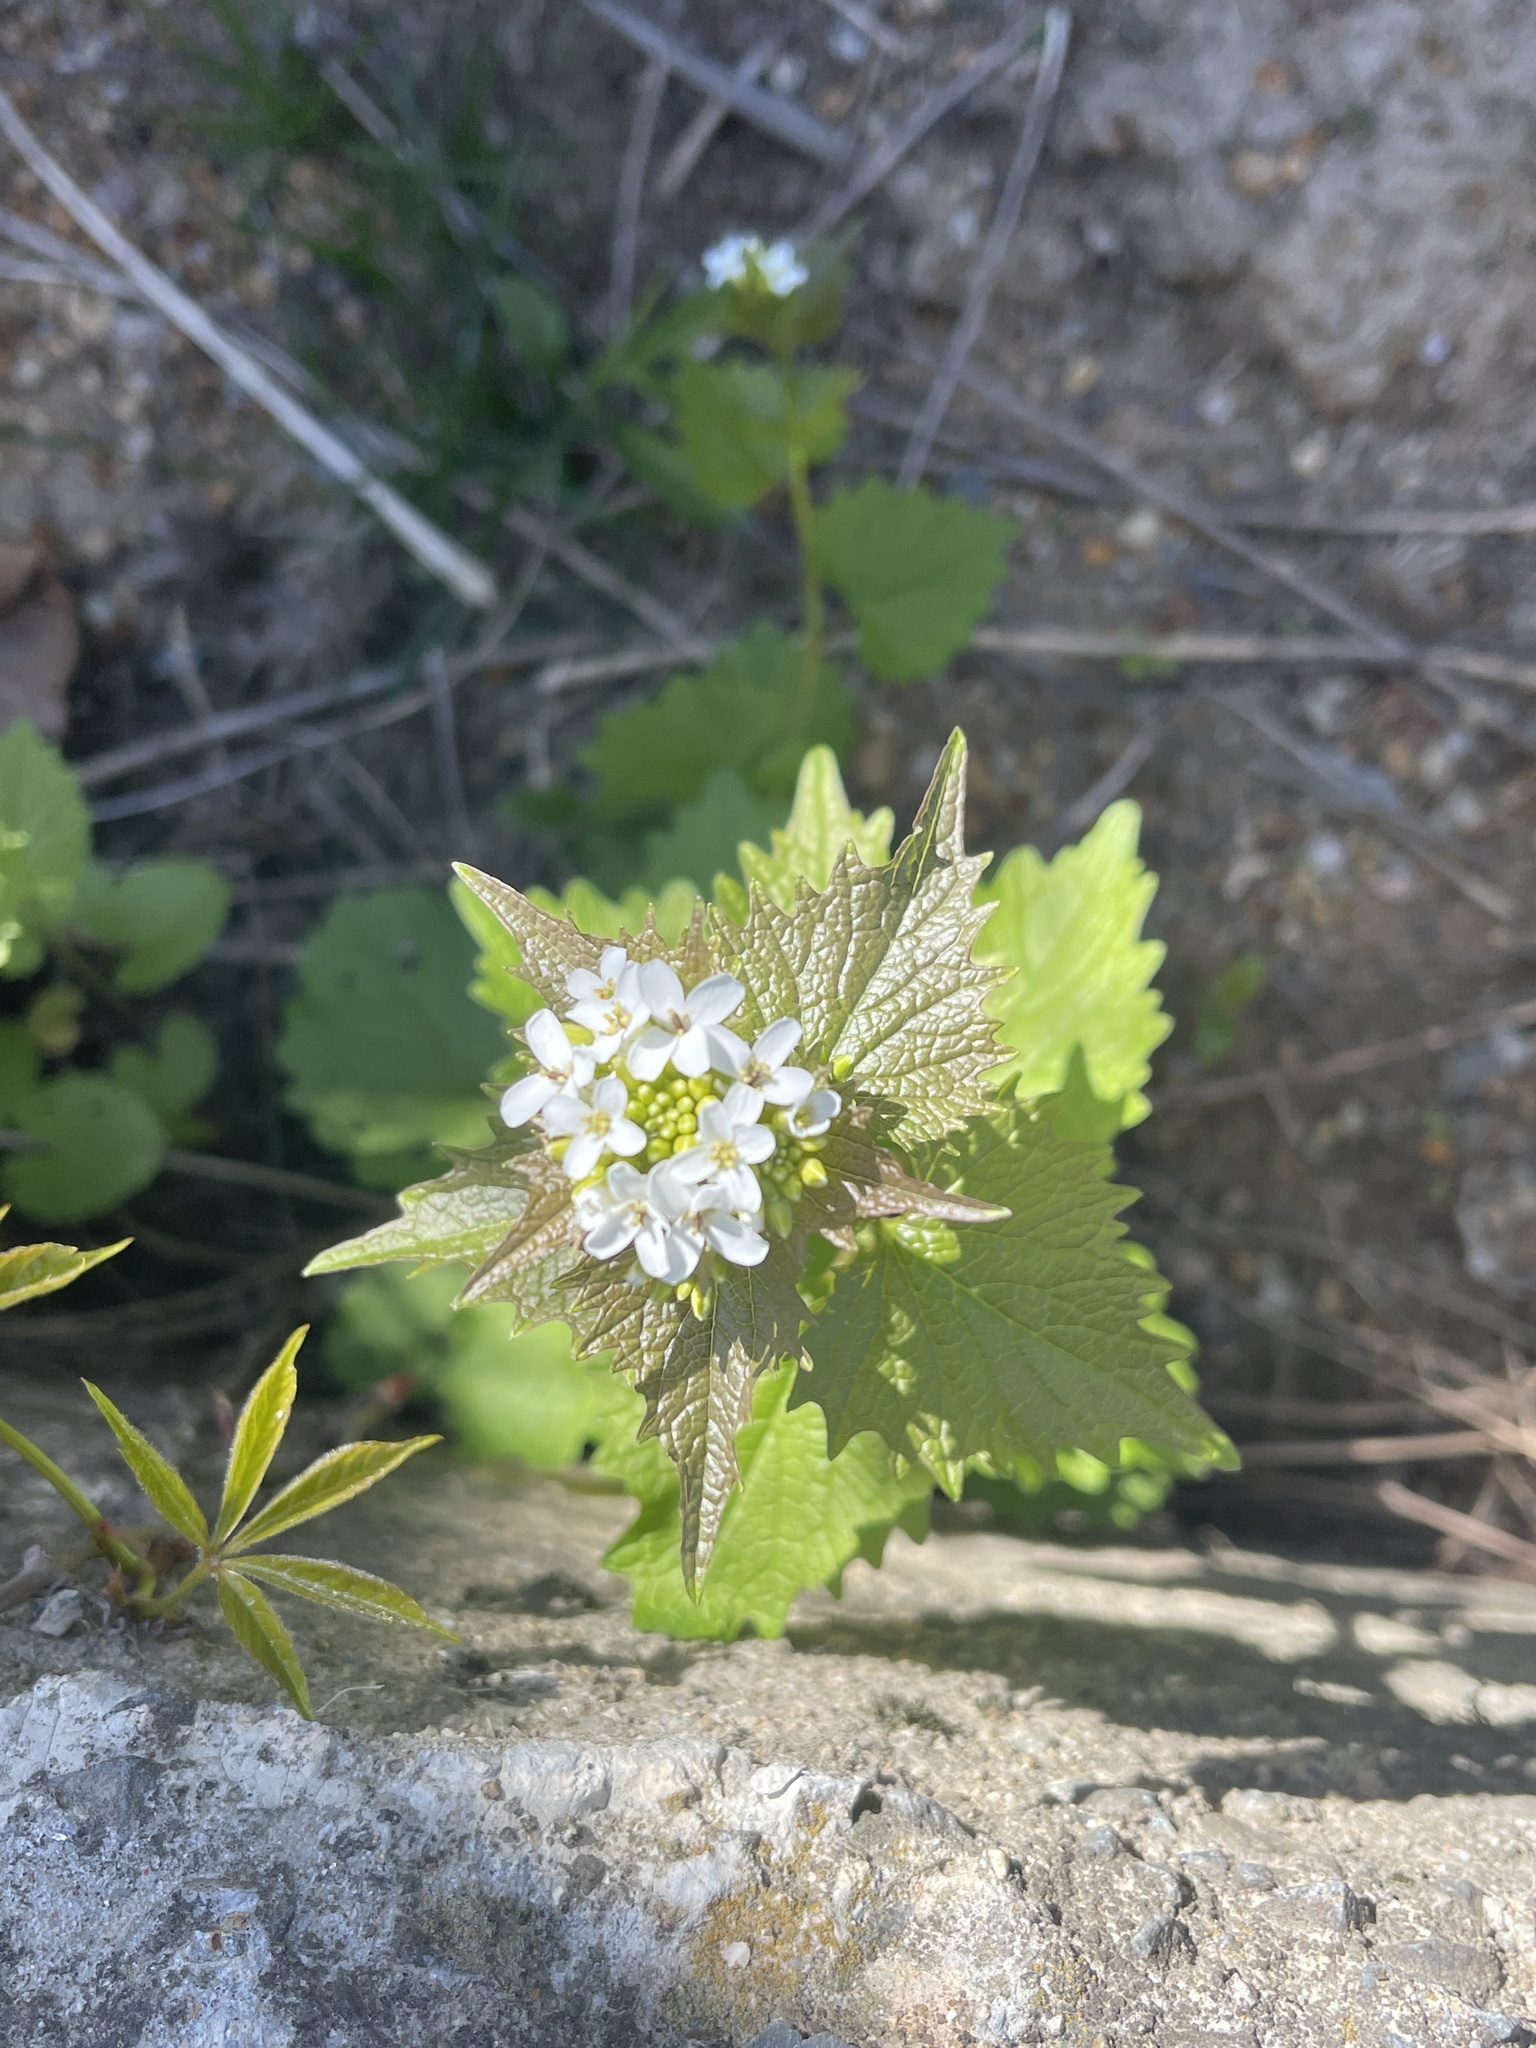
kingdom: Plantae
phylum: Tracheophyta
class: Magnoliopsida
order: Brassicales
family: Brassicaceae
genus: Alliaria
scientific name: Alliaria petiolata
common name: Garlic mustard
